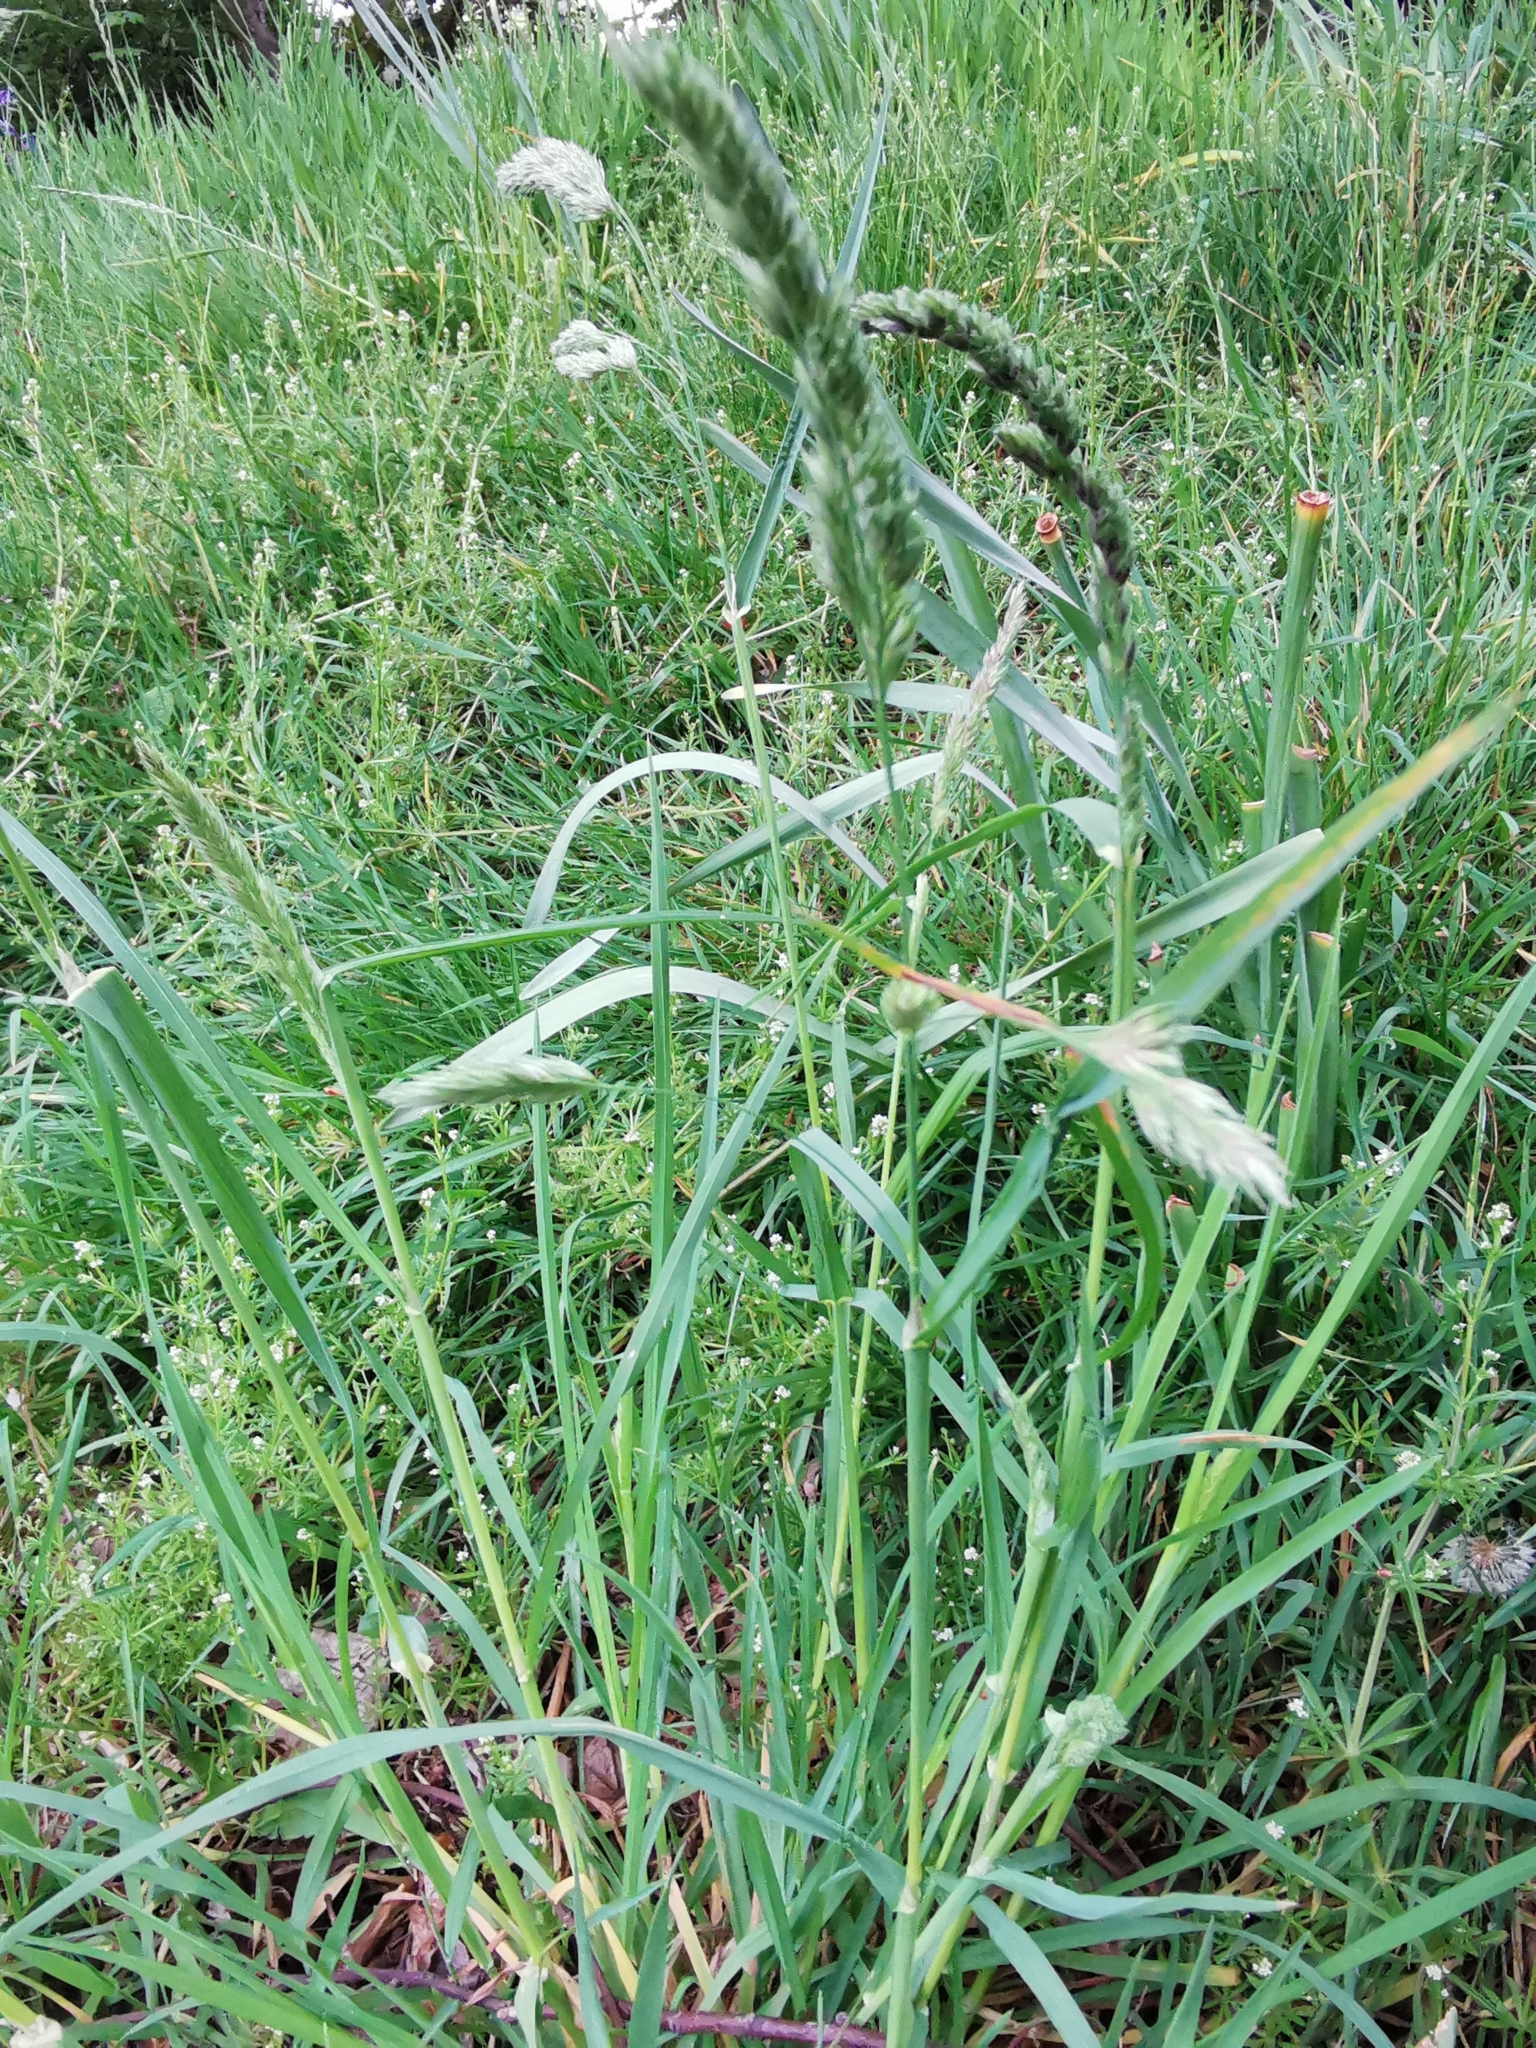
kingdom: Plantae
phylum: Tracheophyta
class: Liliopsida
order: Poales
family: Poaceae
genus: Dactylis
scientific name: Dactylis glomerata
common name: Orchardgrass
